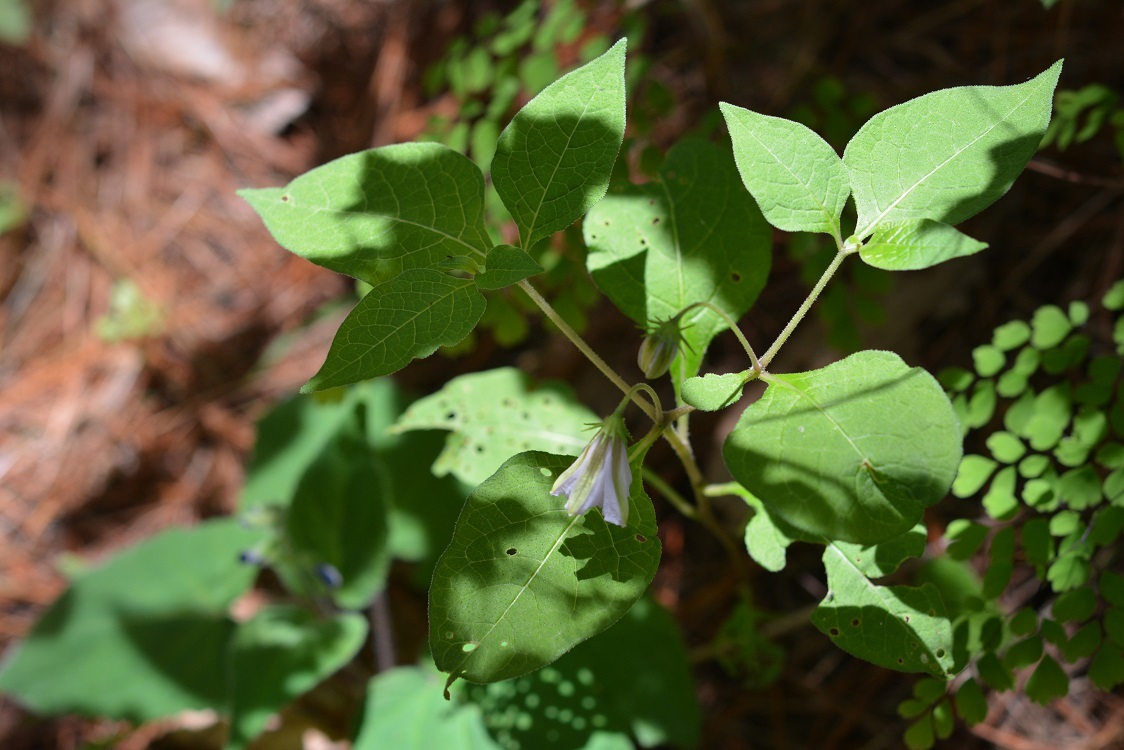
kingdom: Plantae
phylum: Tracheophyta
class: Magnoliopsida
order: Solanales
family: Solanaceae
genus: Lycianthes
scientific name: Lycianthes ciliolata
